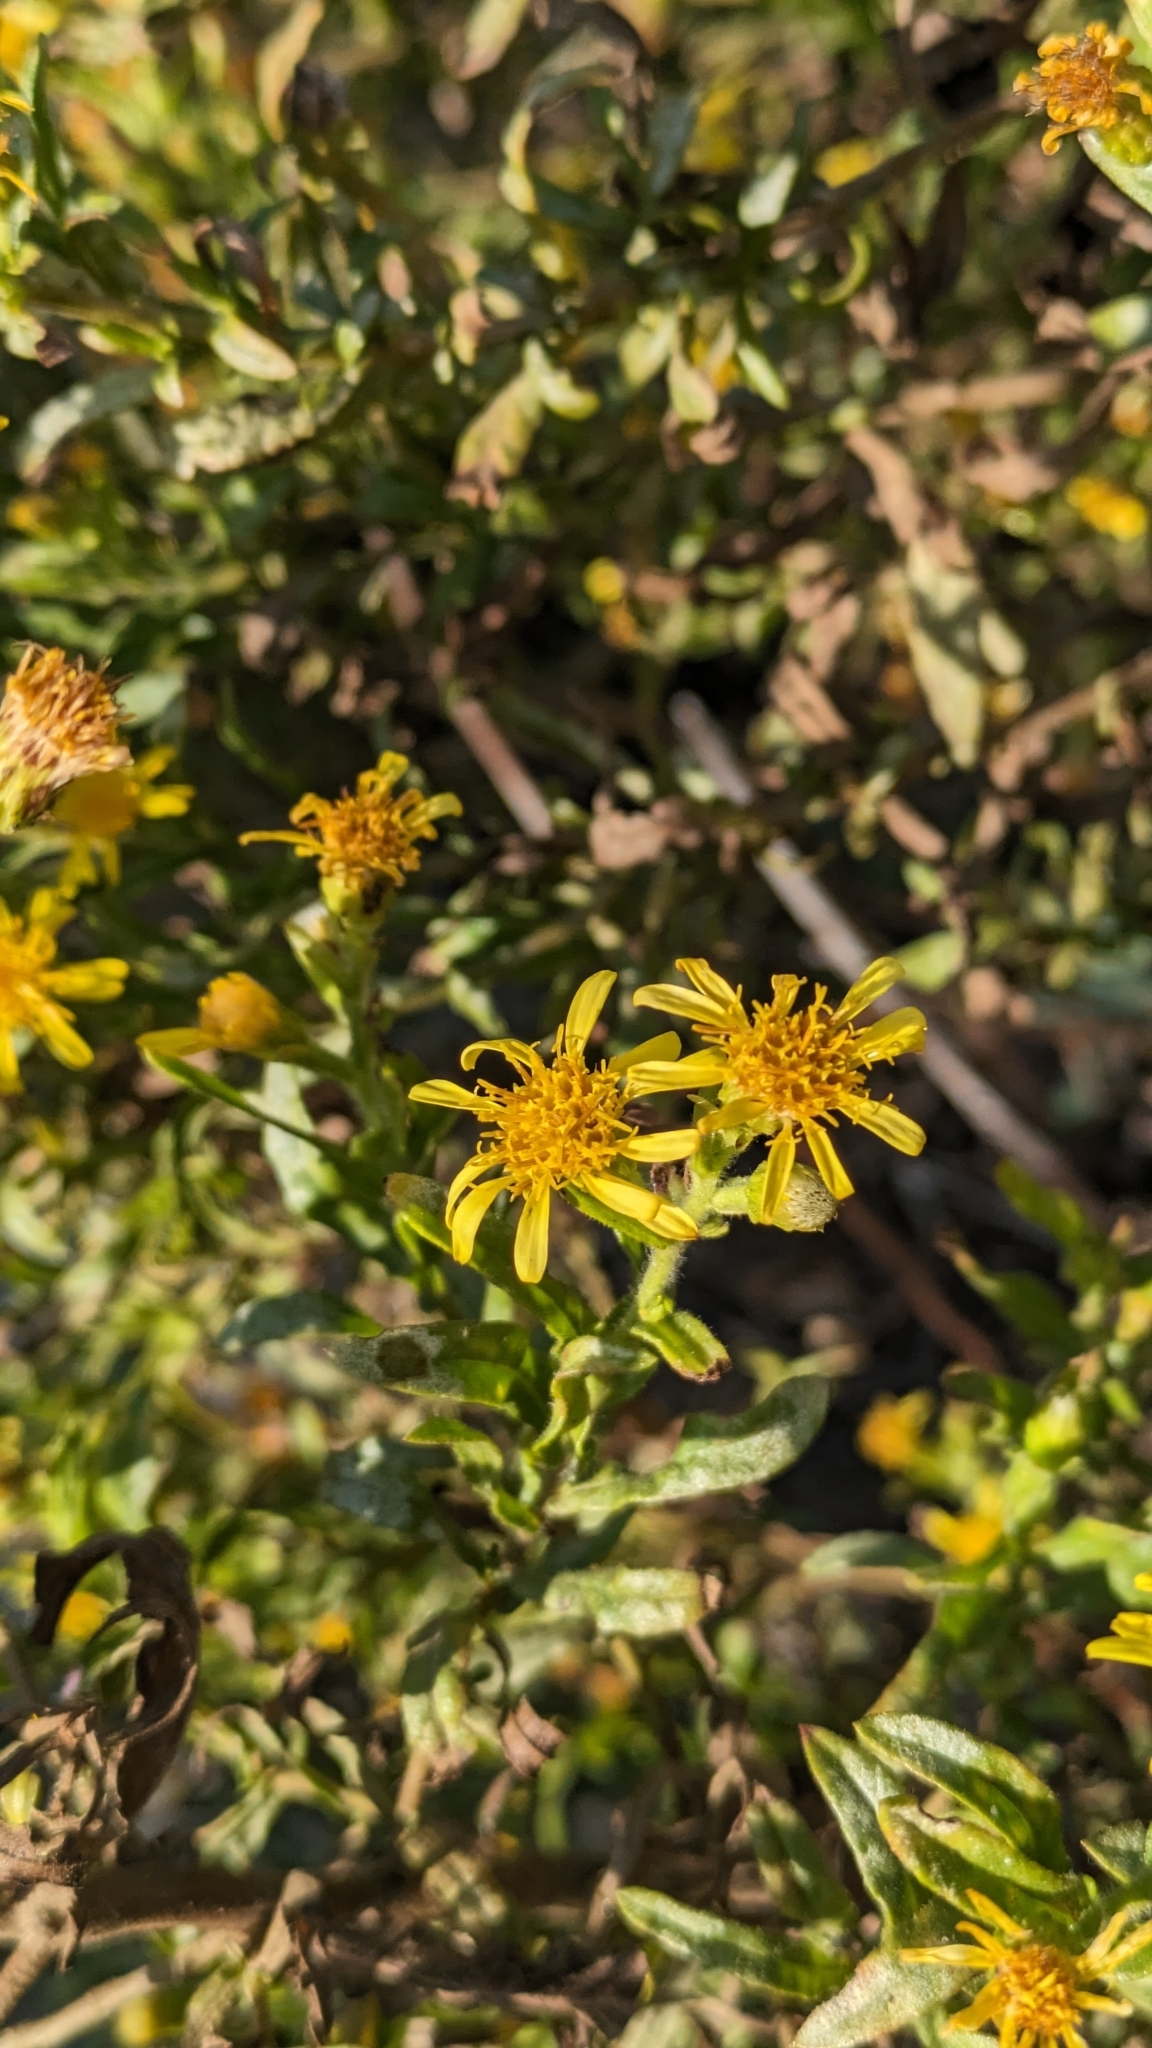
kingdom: Plantae
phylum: Tracheophyta
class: Magnoliopsida
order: Asterales
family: Asteraceae
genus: Dittrichia
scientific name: Dittrichia viscosa
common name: Woody fleabane
